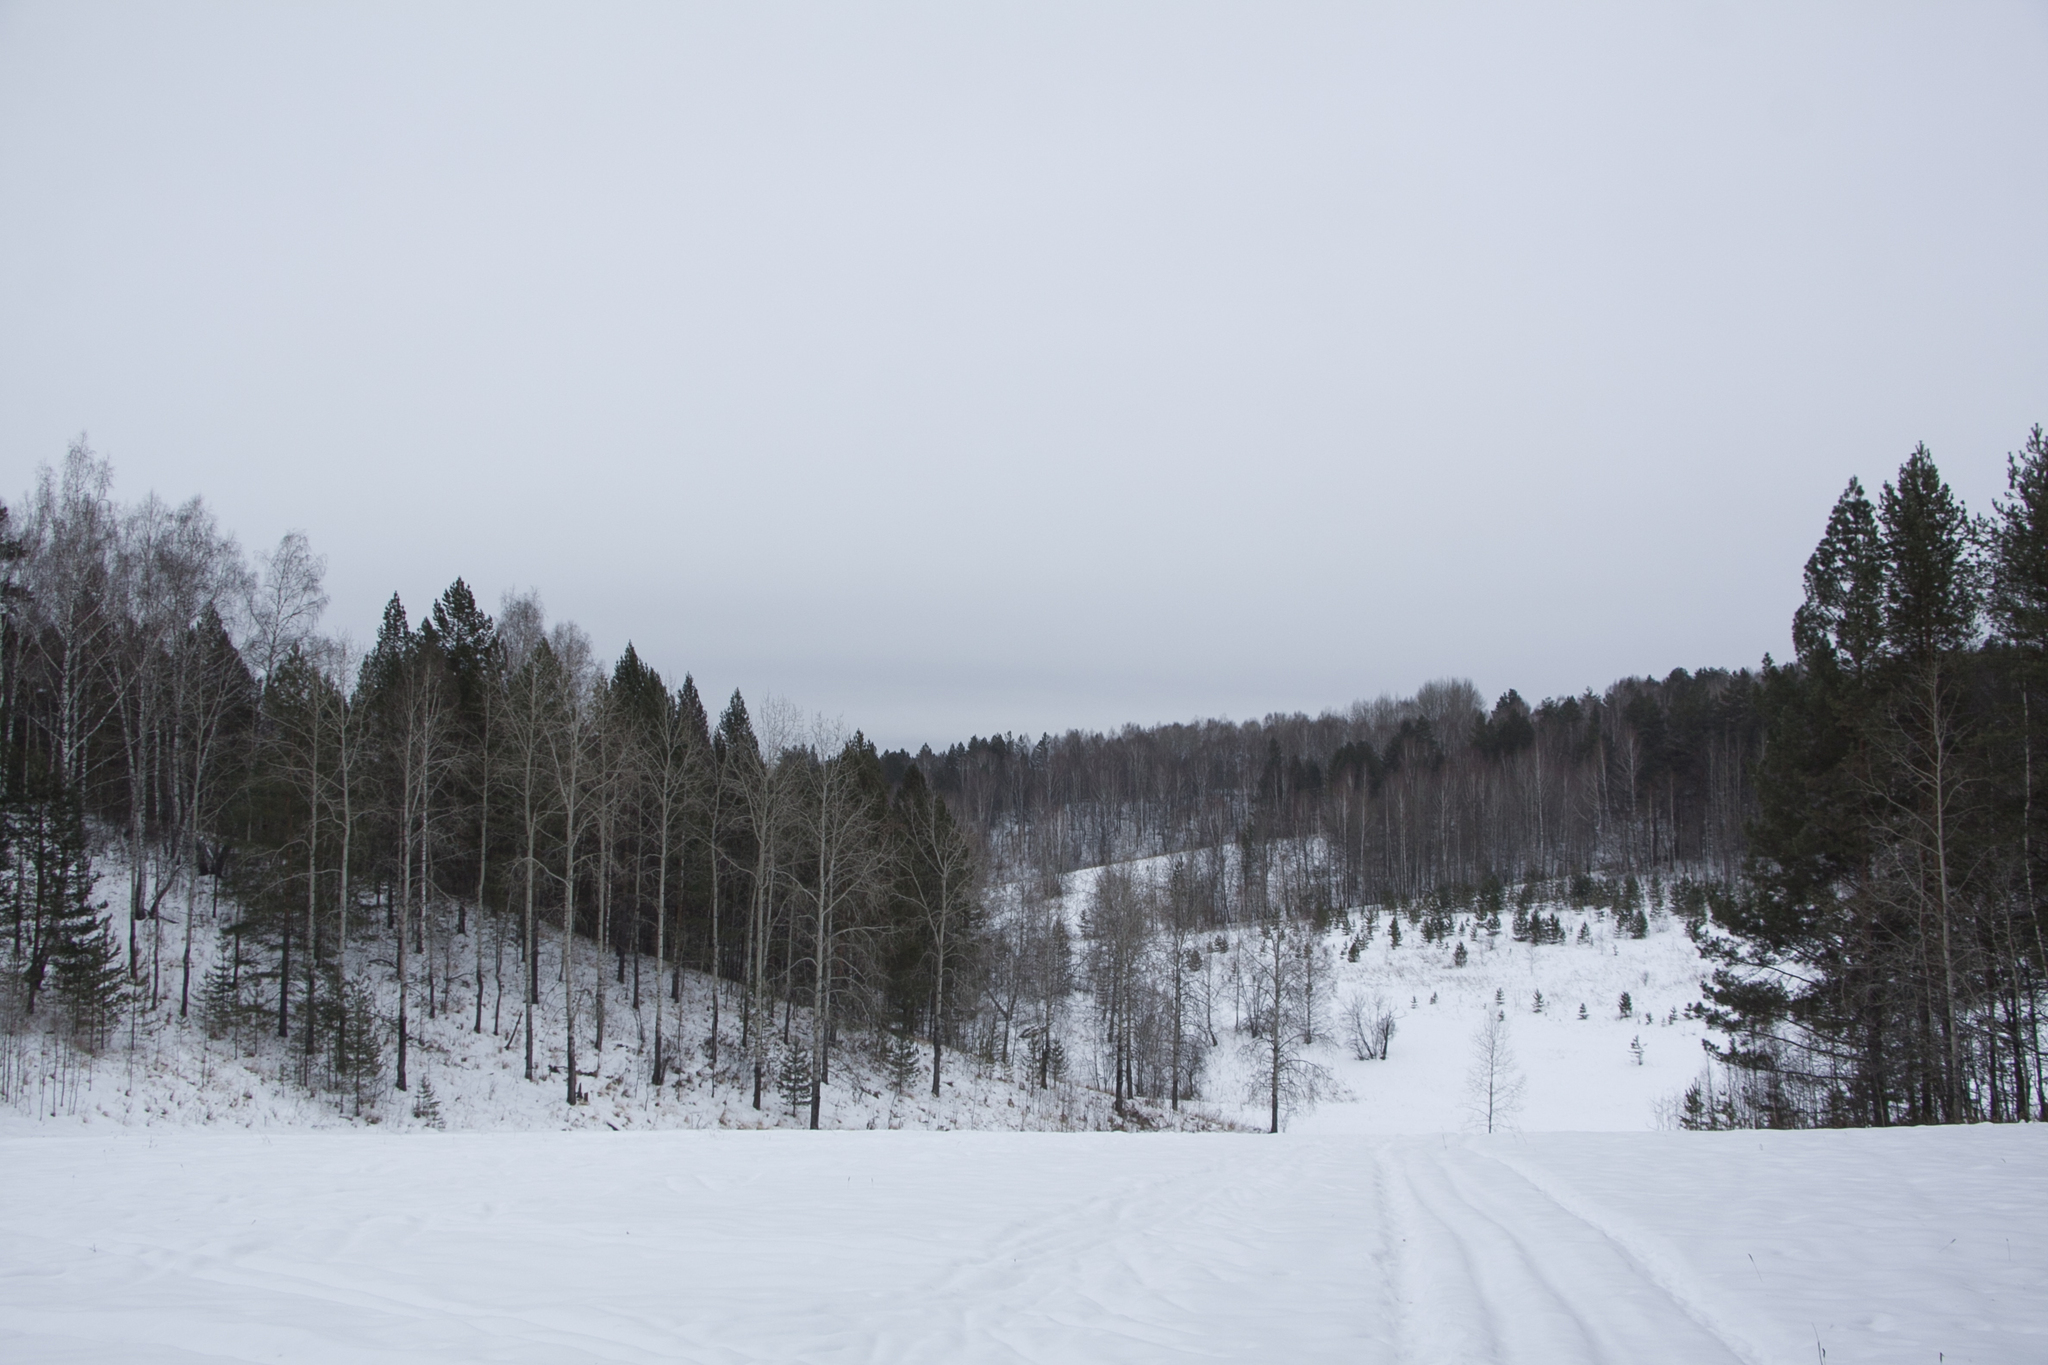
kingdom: Plantae
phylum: Tracheophyta
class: Pinopsida
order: Pinales
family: Pinaceae
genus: Pinus
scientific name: Pinus sylvestris
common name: Scots pine
